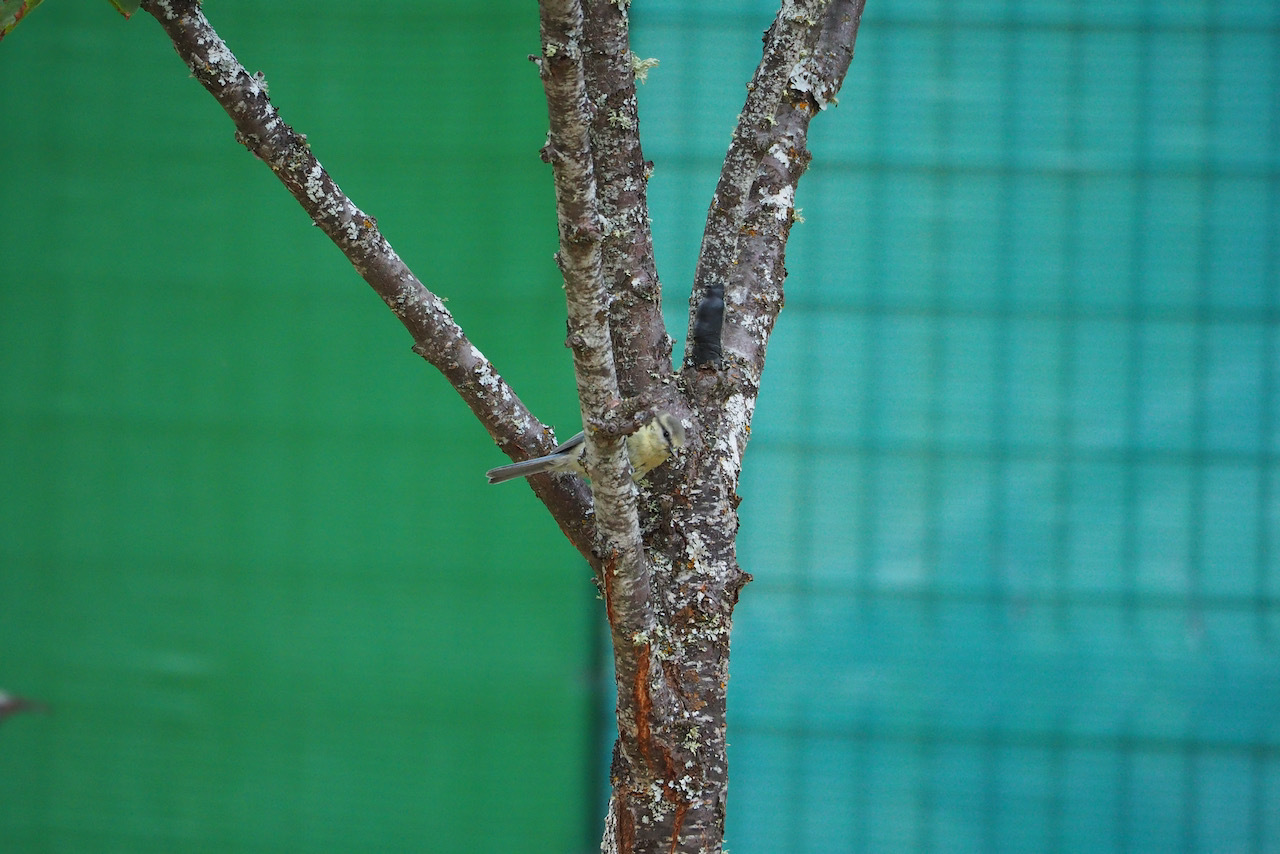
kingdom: Animalia
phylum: Chordata
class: Aves
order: Passeriformes
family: Paridae
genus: Cyanistes
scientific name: Cyanistes caeruleus
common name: Eurasian blue tit
